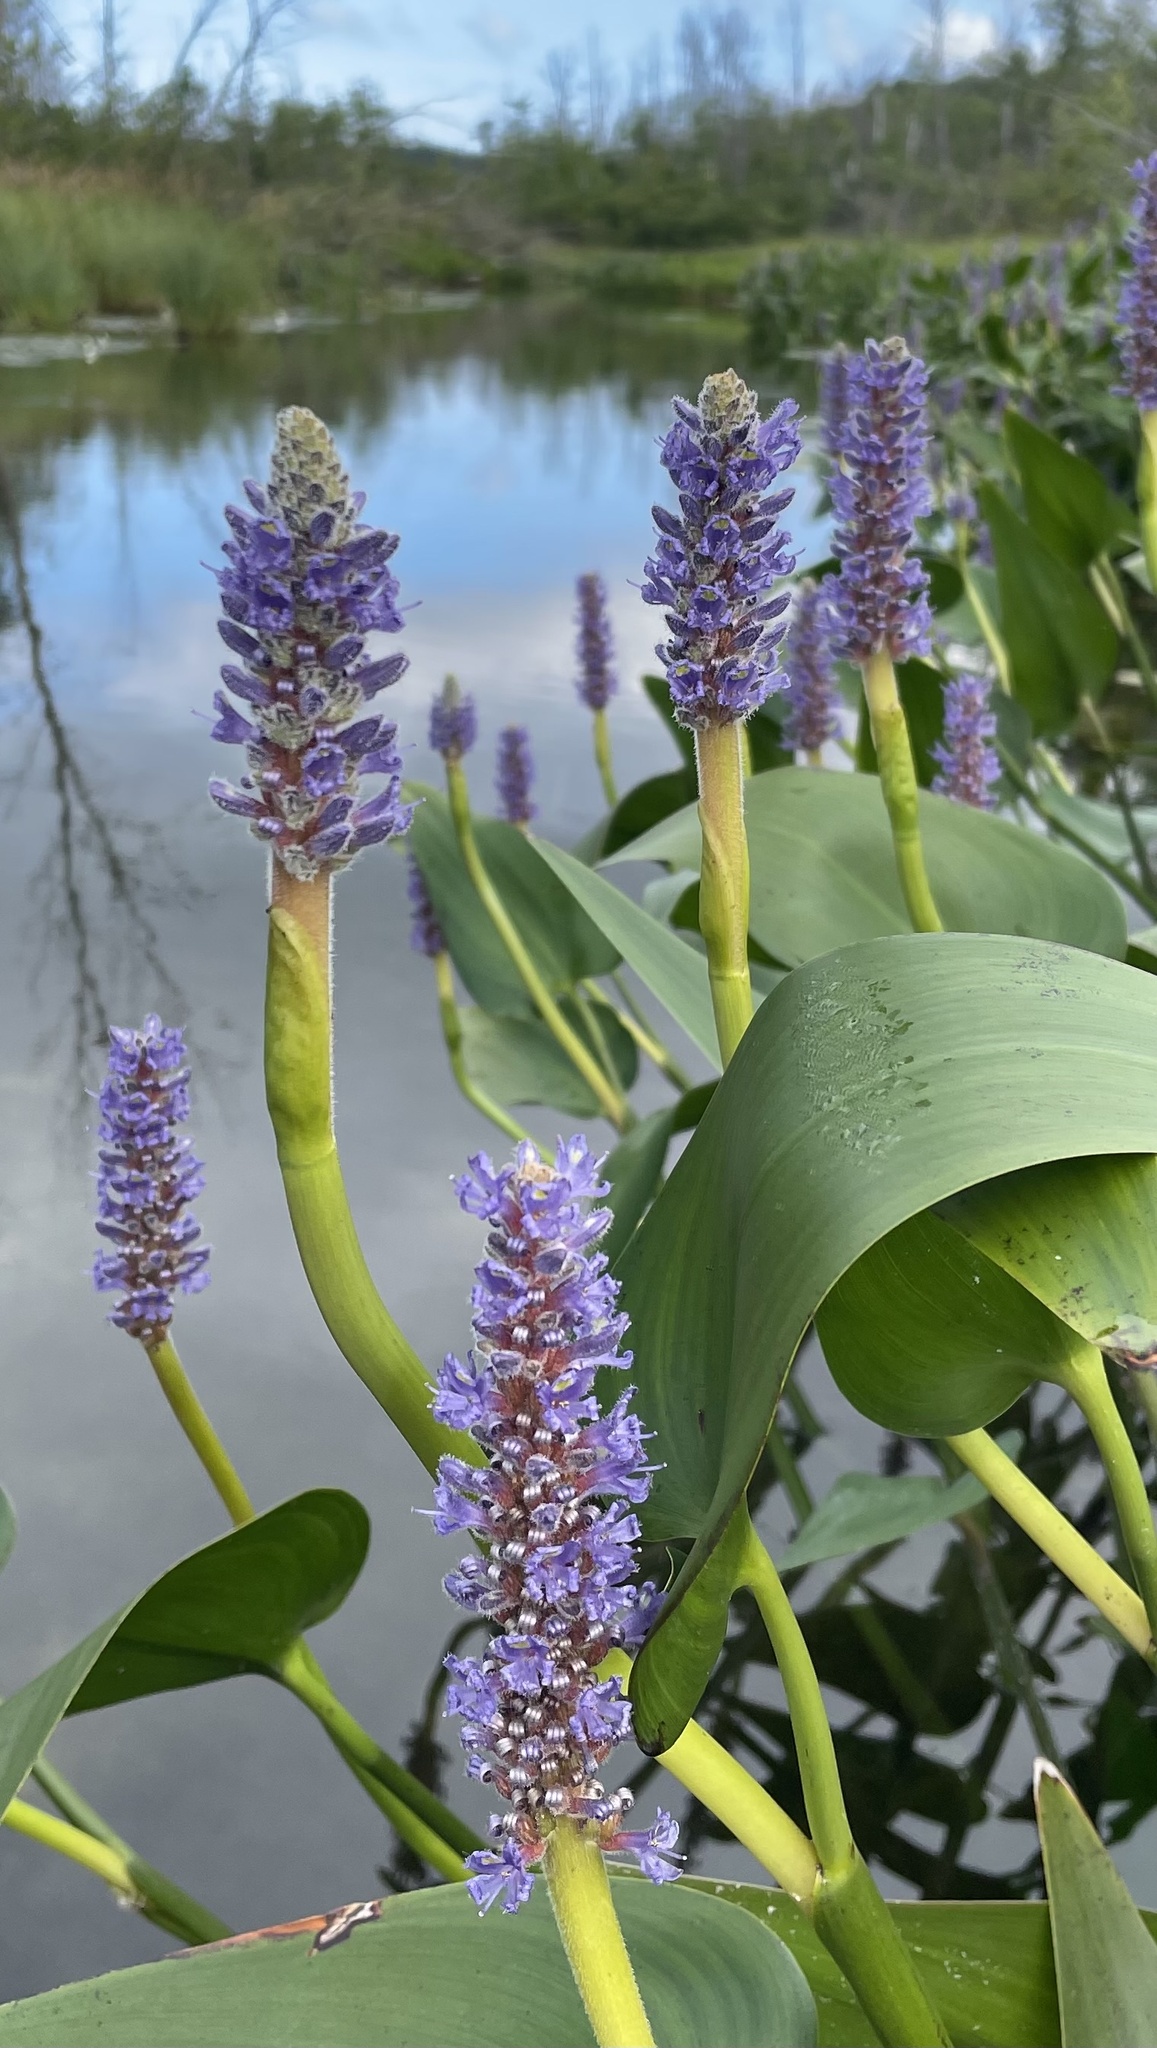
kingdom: Plantae
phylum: Tracheophyta
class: Liliopsida
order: Commelinales
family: Pontederiaceae
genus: Pontederia
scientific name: Pontederia cordata
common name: Pickerelweed
